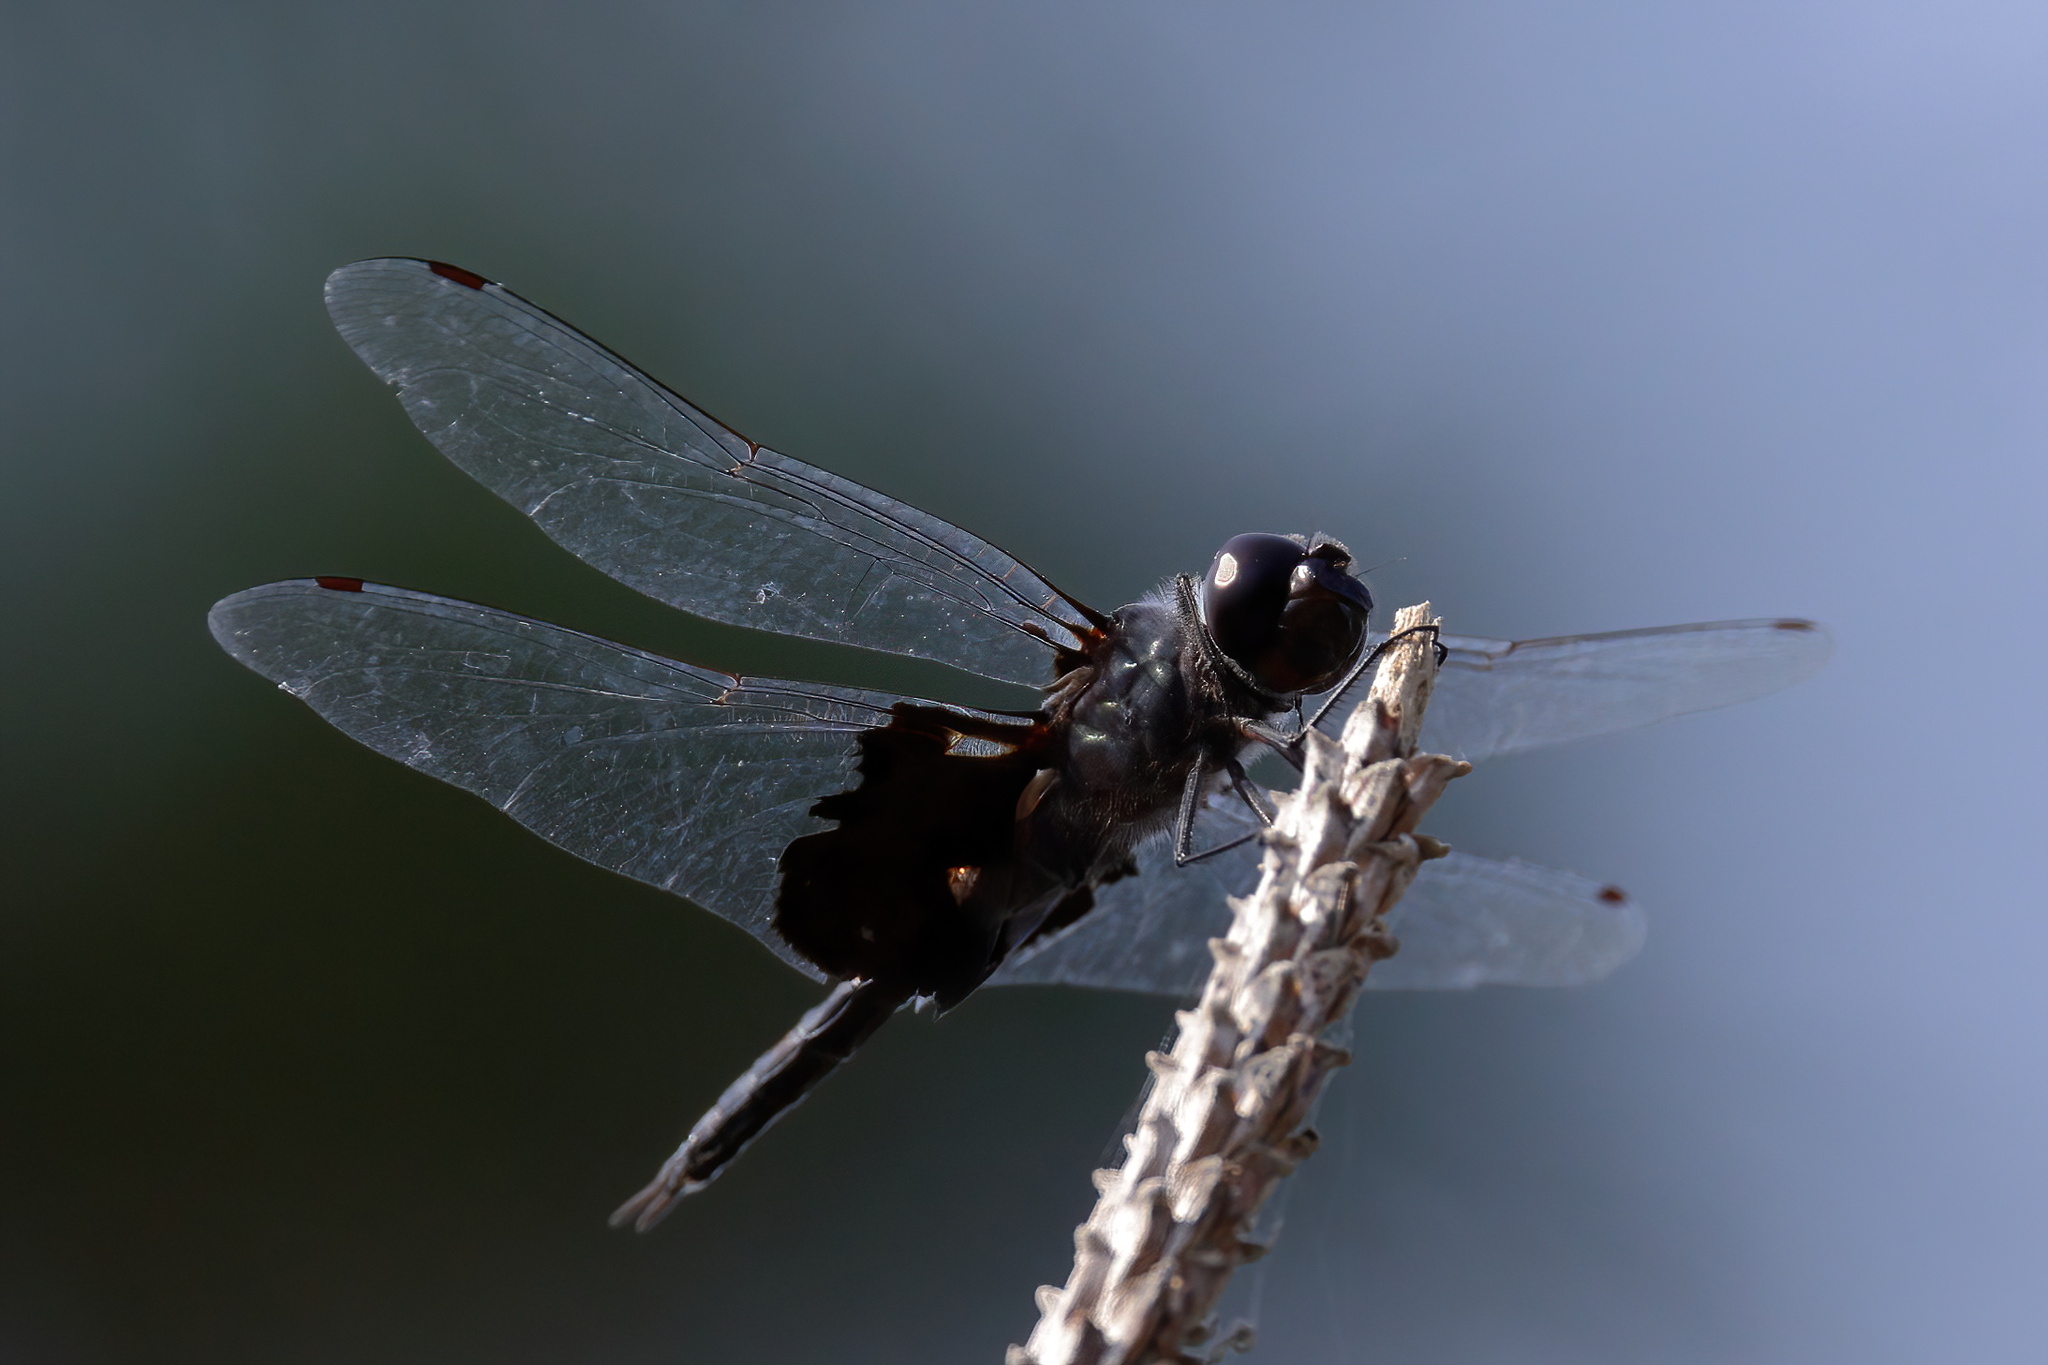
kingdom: Animalia
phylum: Arthropoda
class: Insecta
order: Odonata
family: Libellulidae
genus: Tramea
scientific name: Tramea lacerata
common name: Black saddlebags
